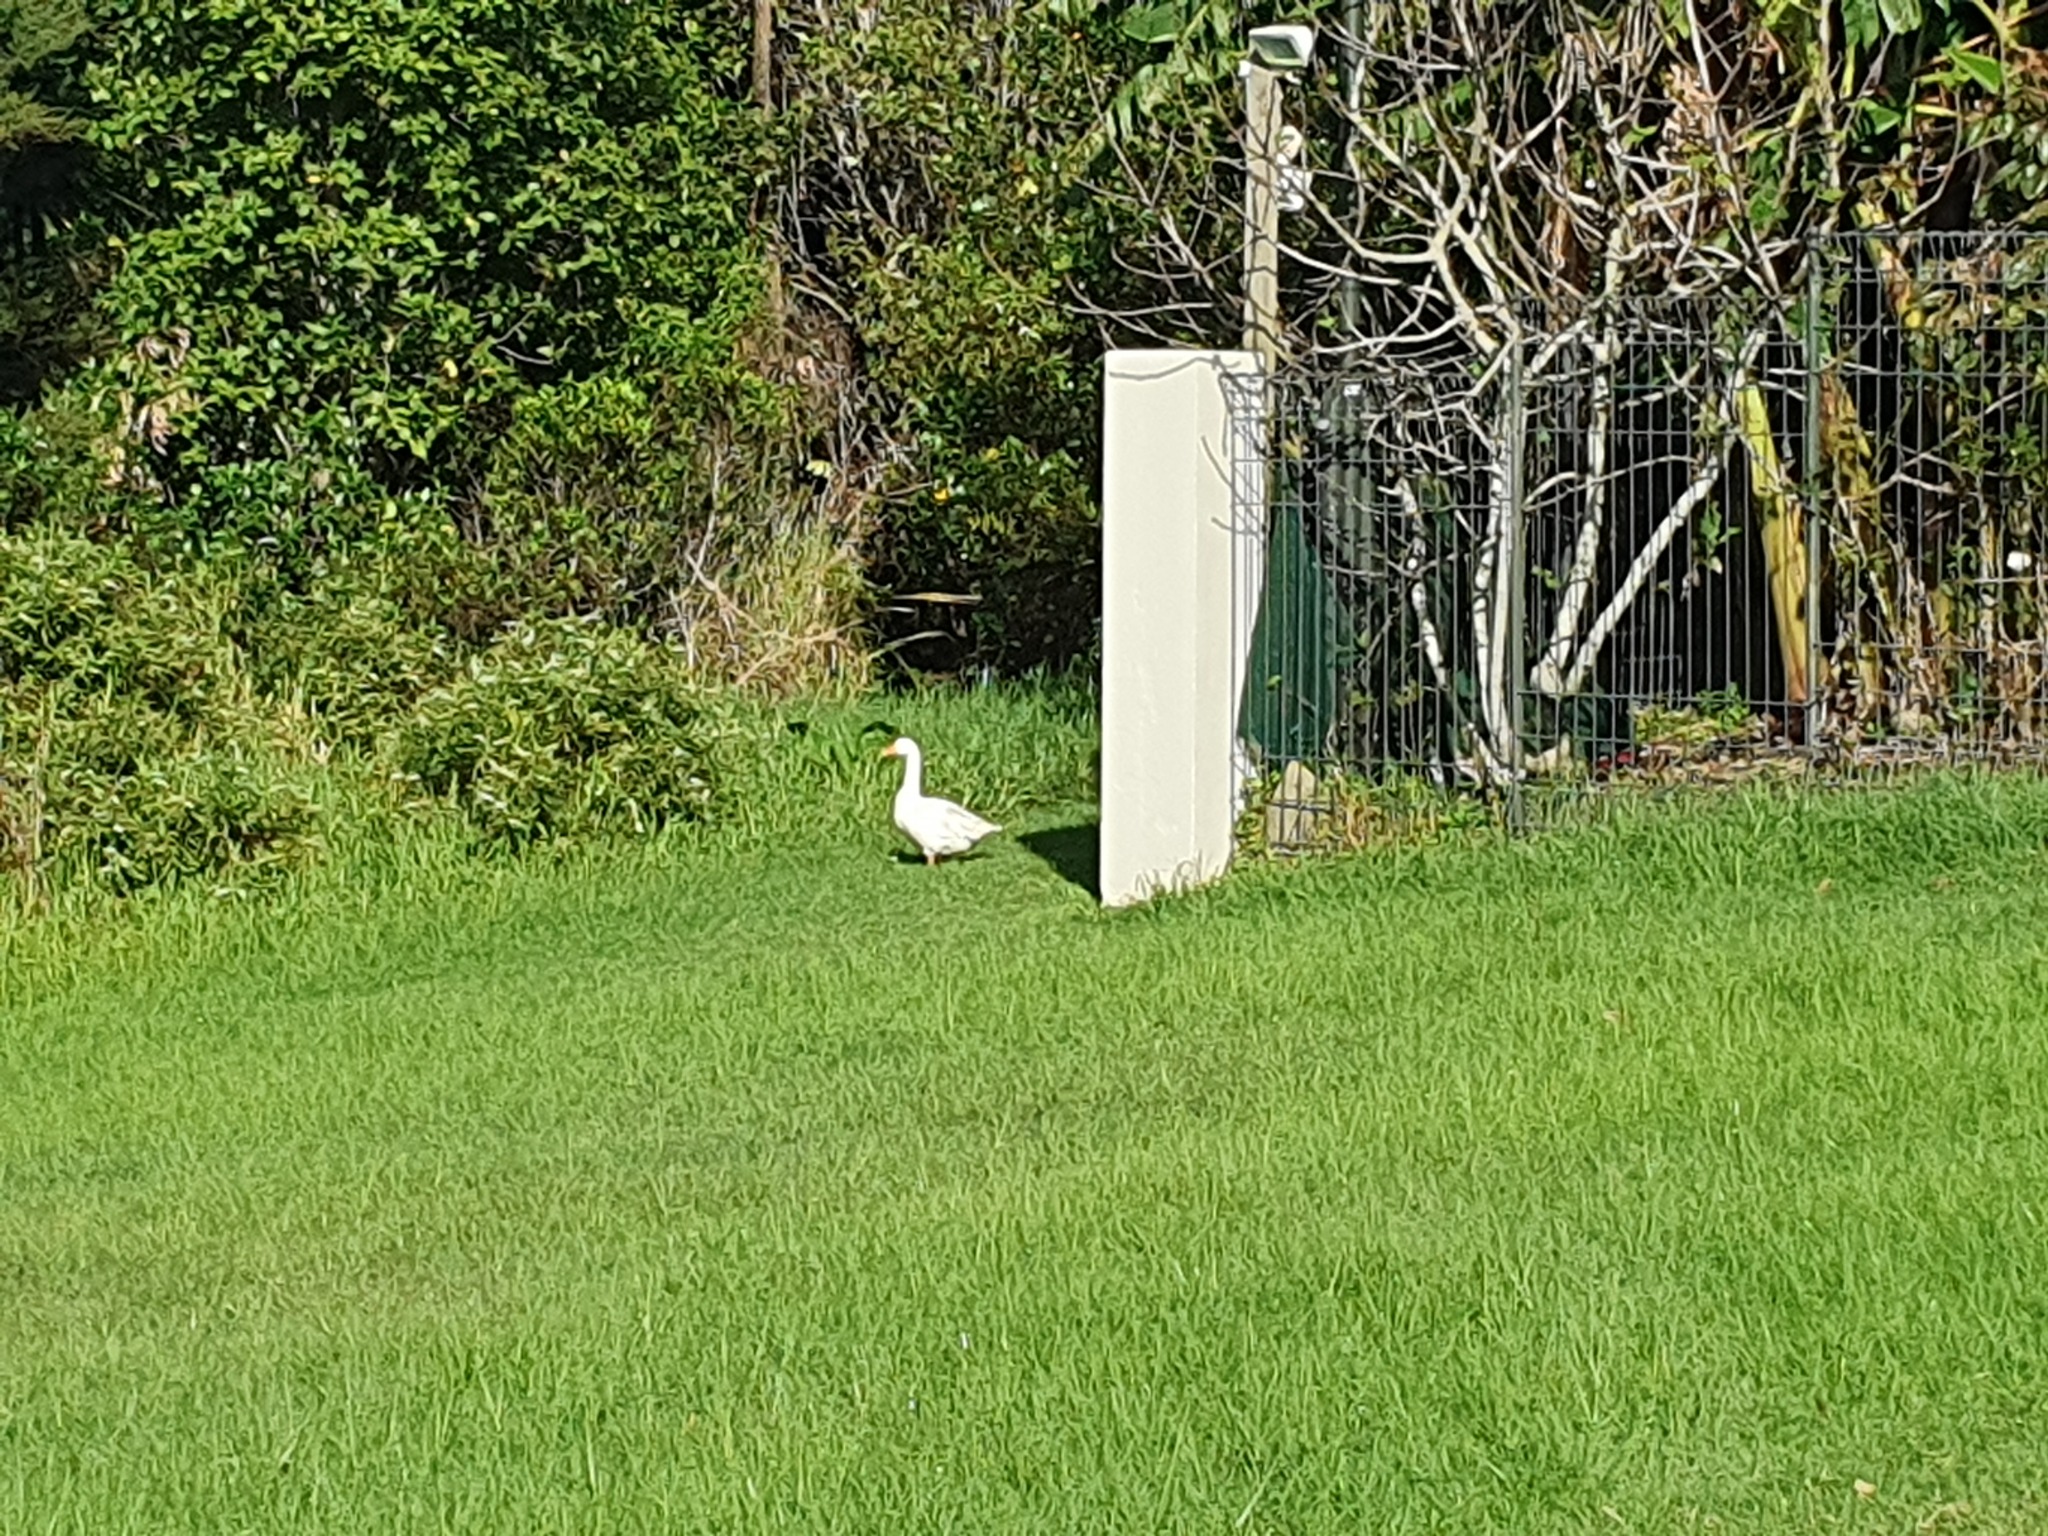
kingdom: Animalia
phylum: Chordata
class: Aves
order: Anseriformes
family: Anatidae
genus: Anser
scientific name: Anser anser
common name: Greylag goose
